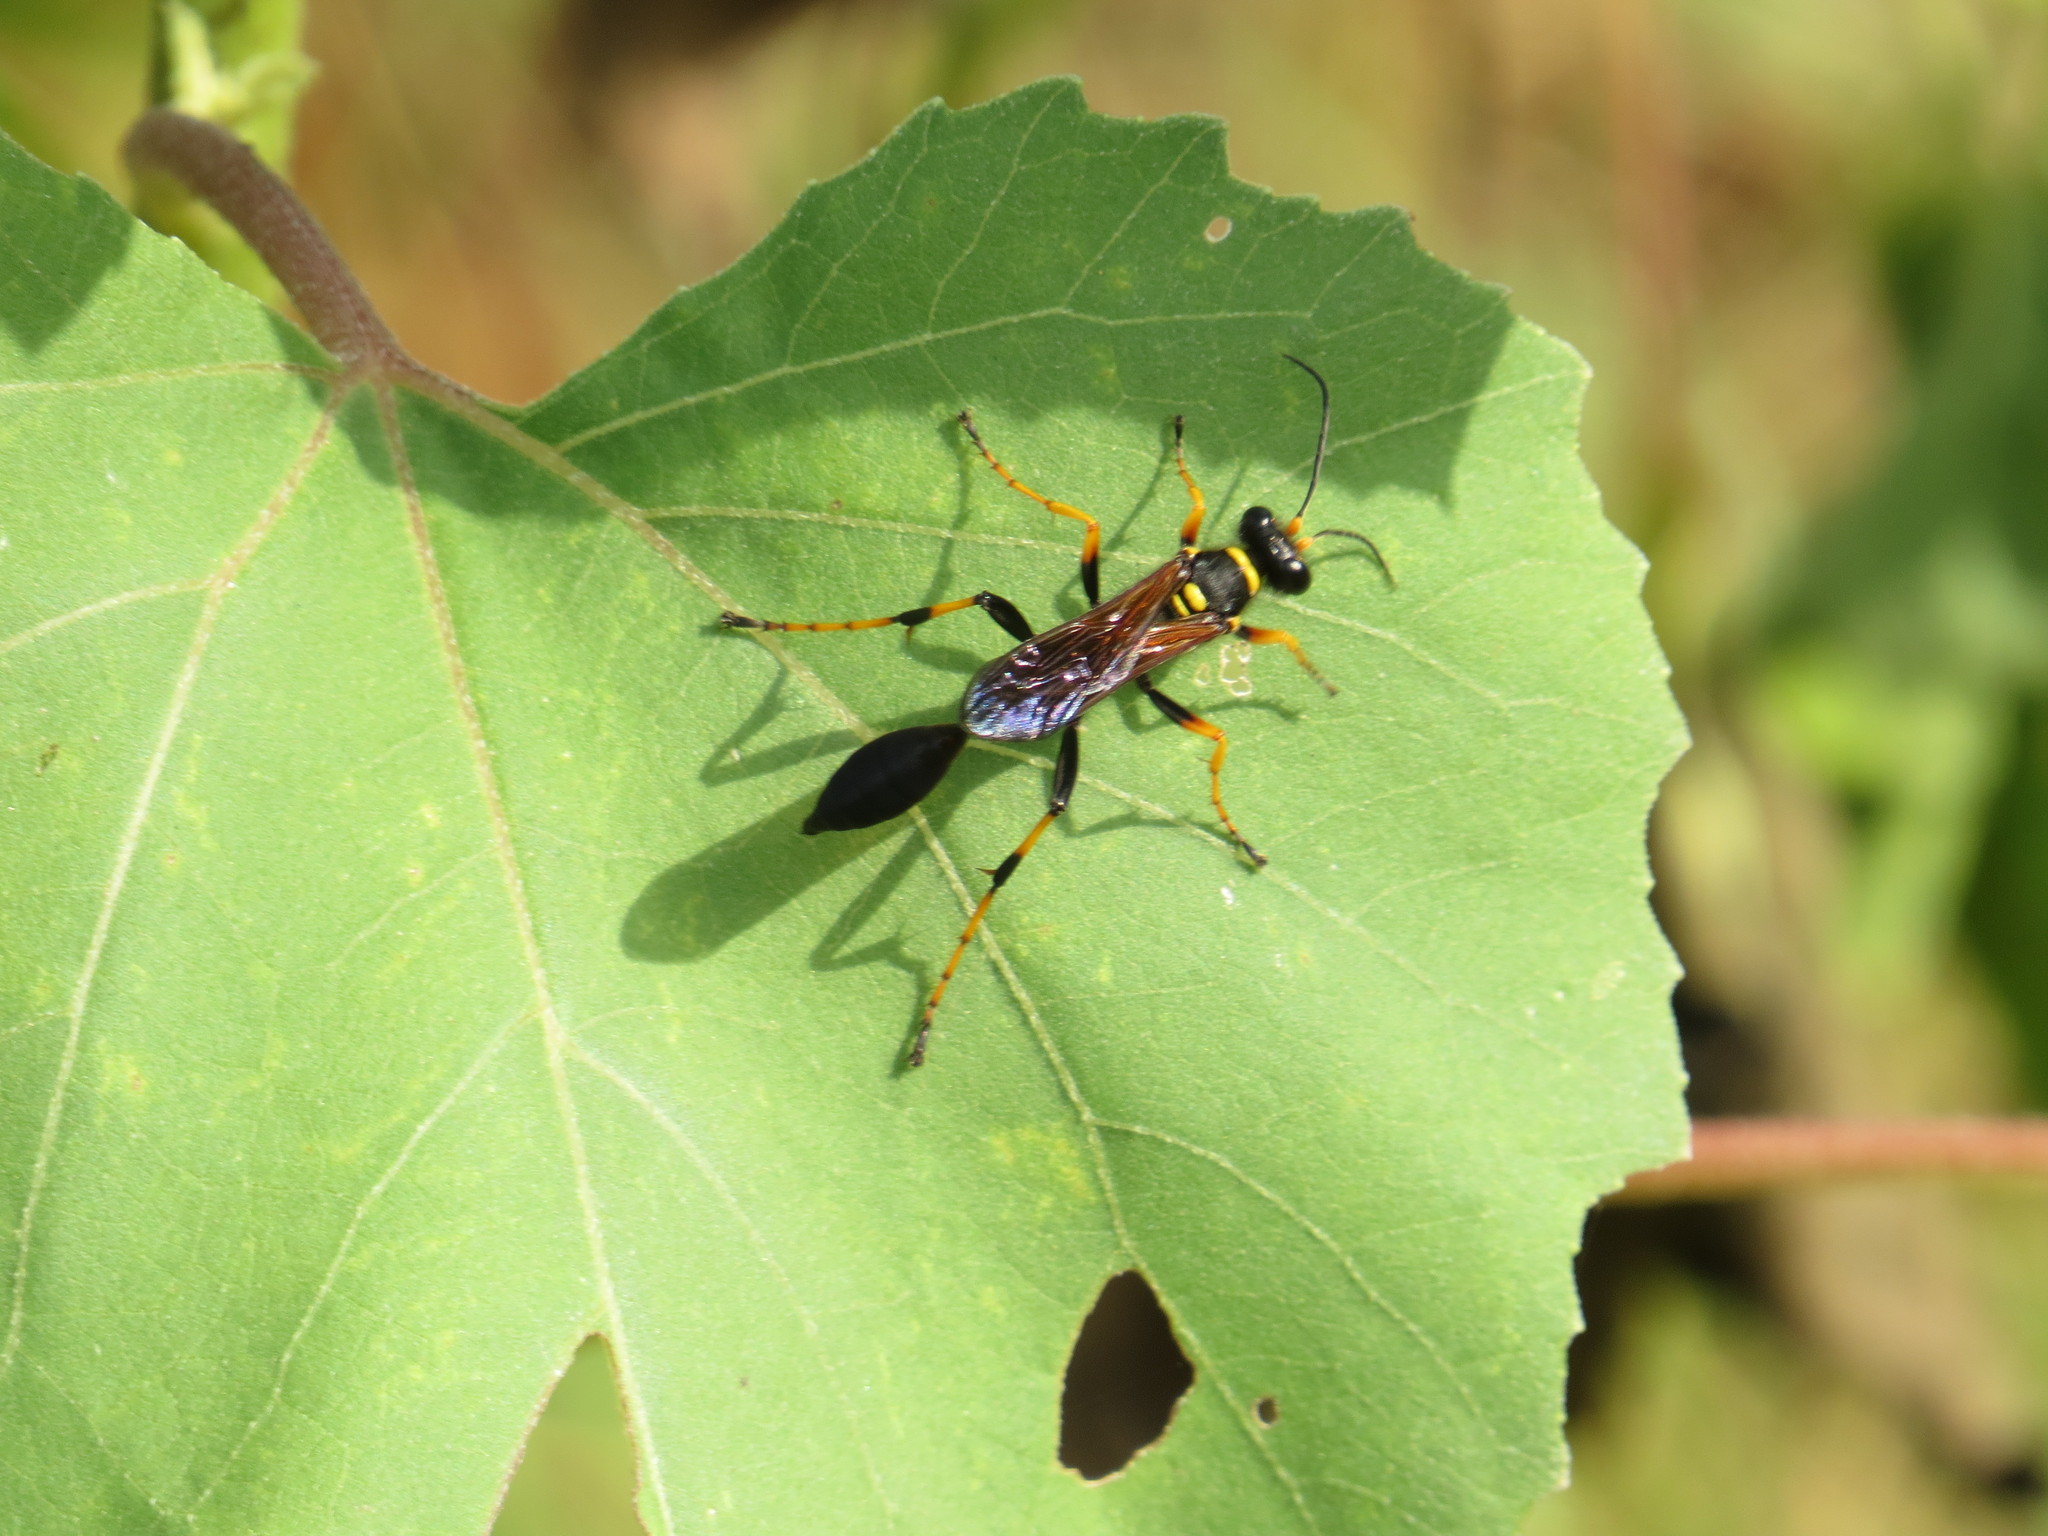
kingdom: Animalia
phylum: Arthropoda
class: Insecta
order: Hymenoptera
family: Sphecidae
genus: Sceliphron
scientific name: Sceliphron caementarium
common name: Mud dauber
